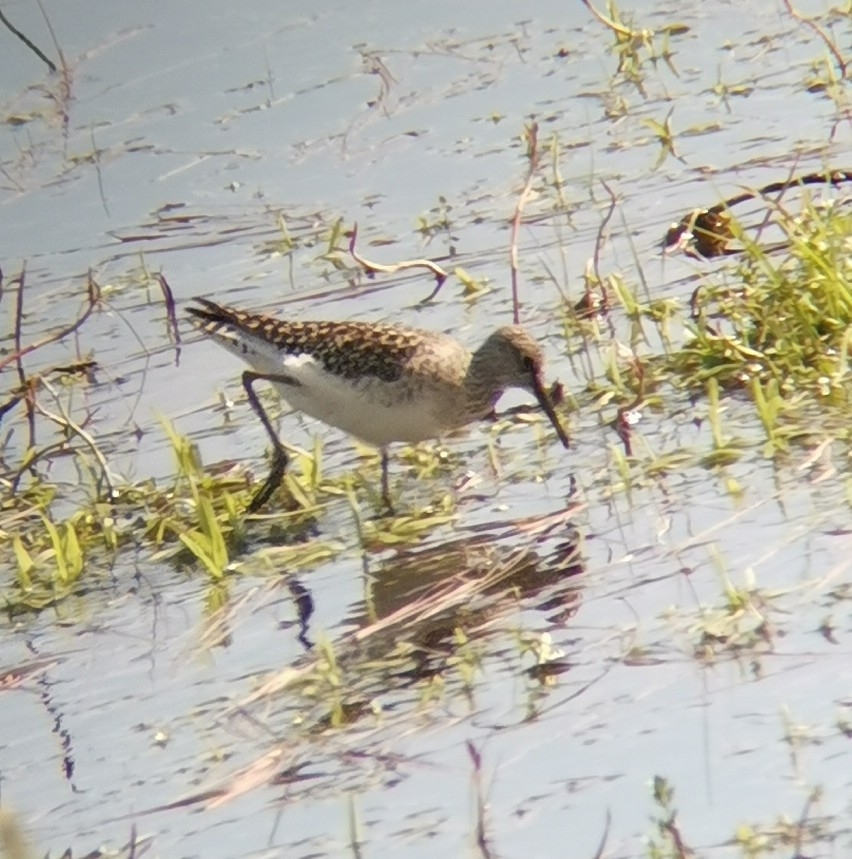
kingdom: Animalia
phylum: Chordata
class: Aves
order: Charadriiformes
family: Scolopacidae
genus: Tringa
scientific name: Tringa glareola
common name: Wood sandpiper
